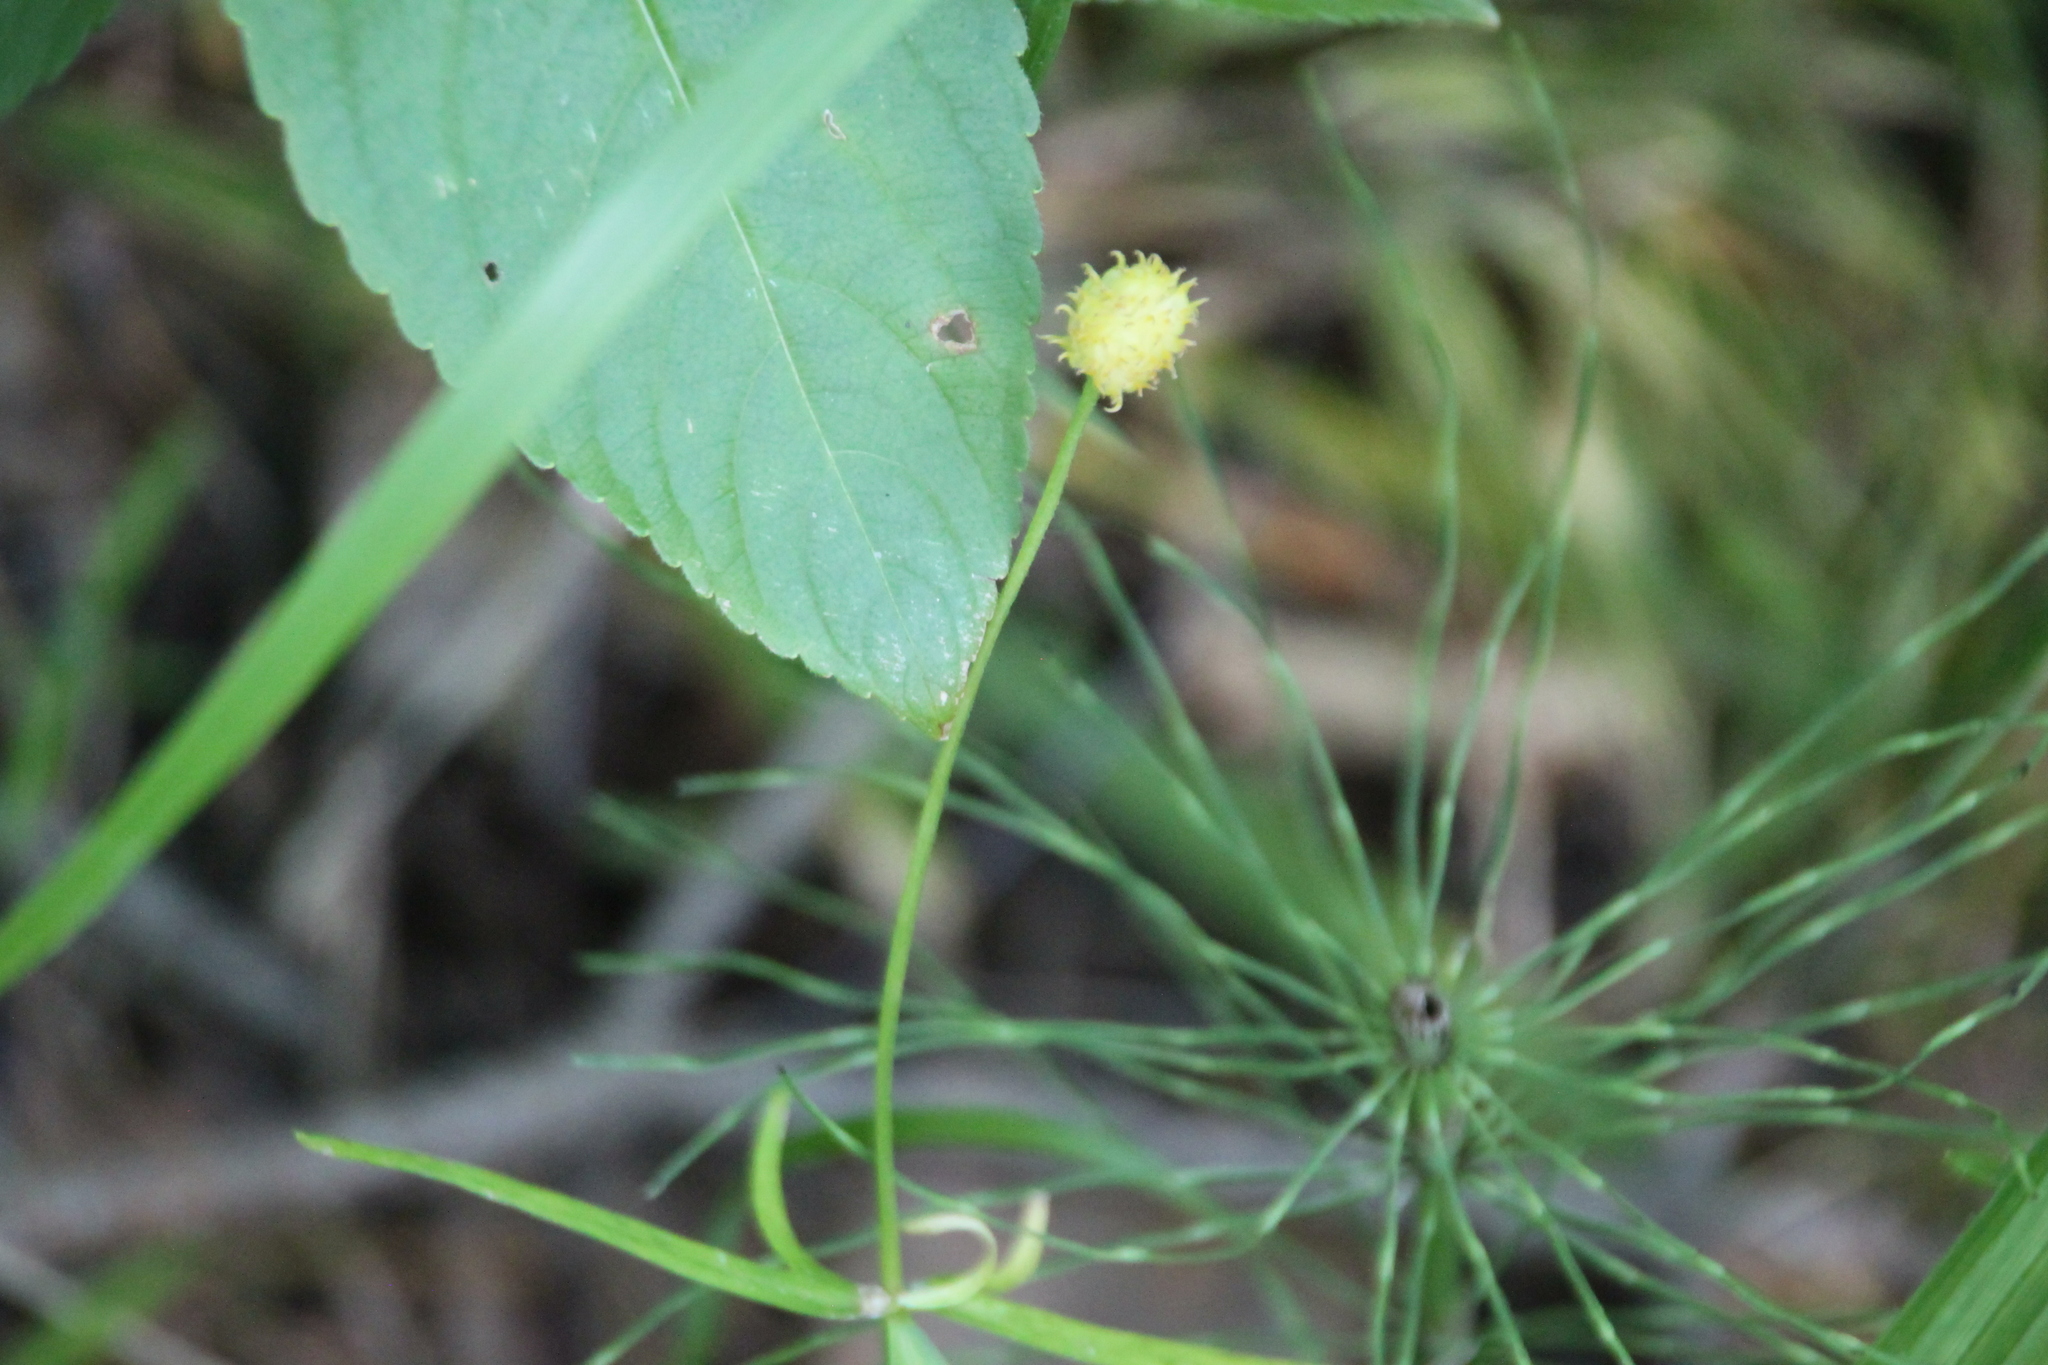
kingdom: Plantae
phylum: Tracheophyta
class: Magnoliopsida
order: Ranunculales
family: Ranunculaceae
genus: Ranunculus
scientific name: Ranunculus cassubicus
